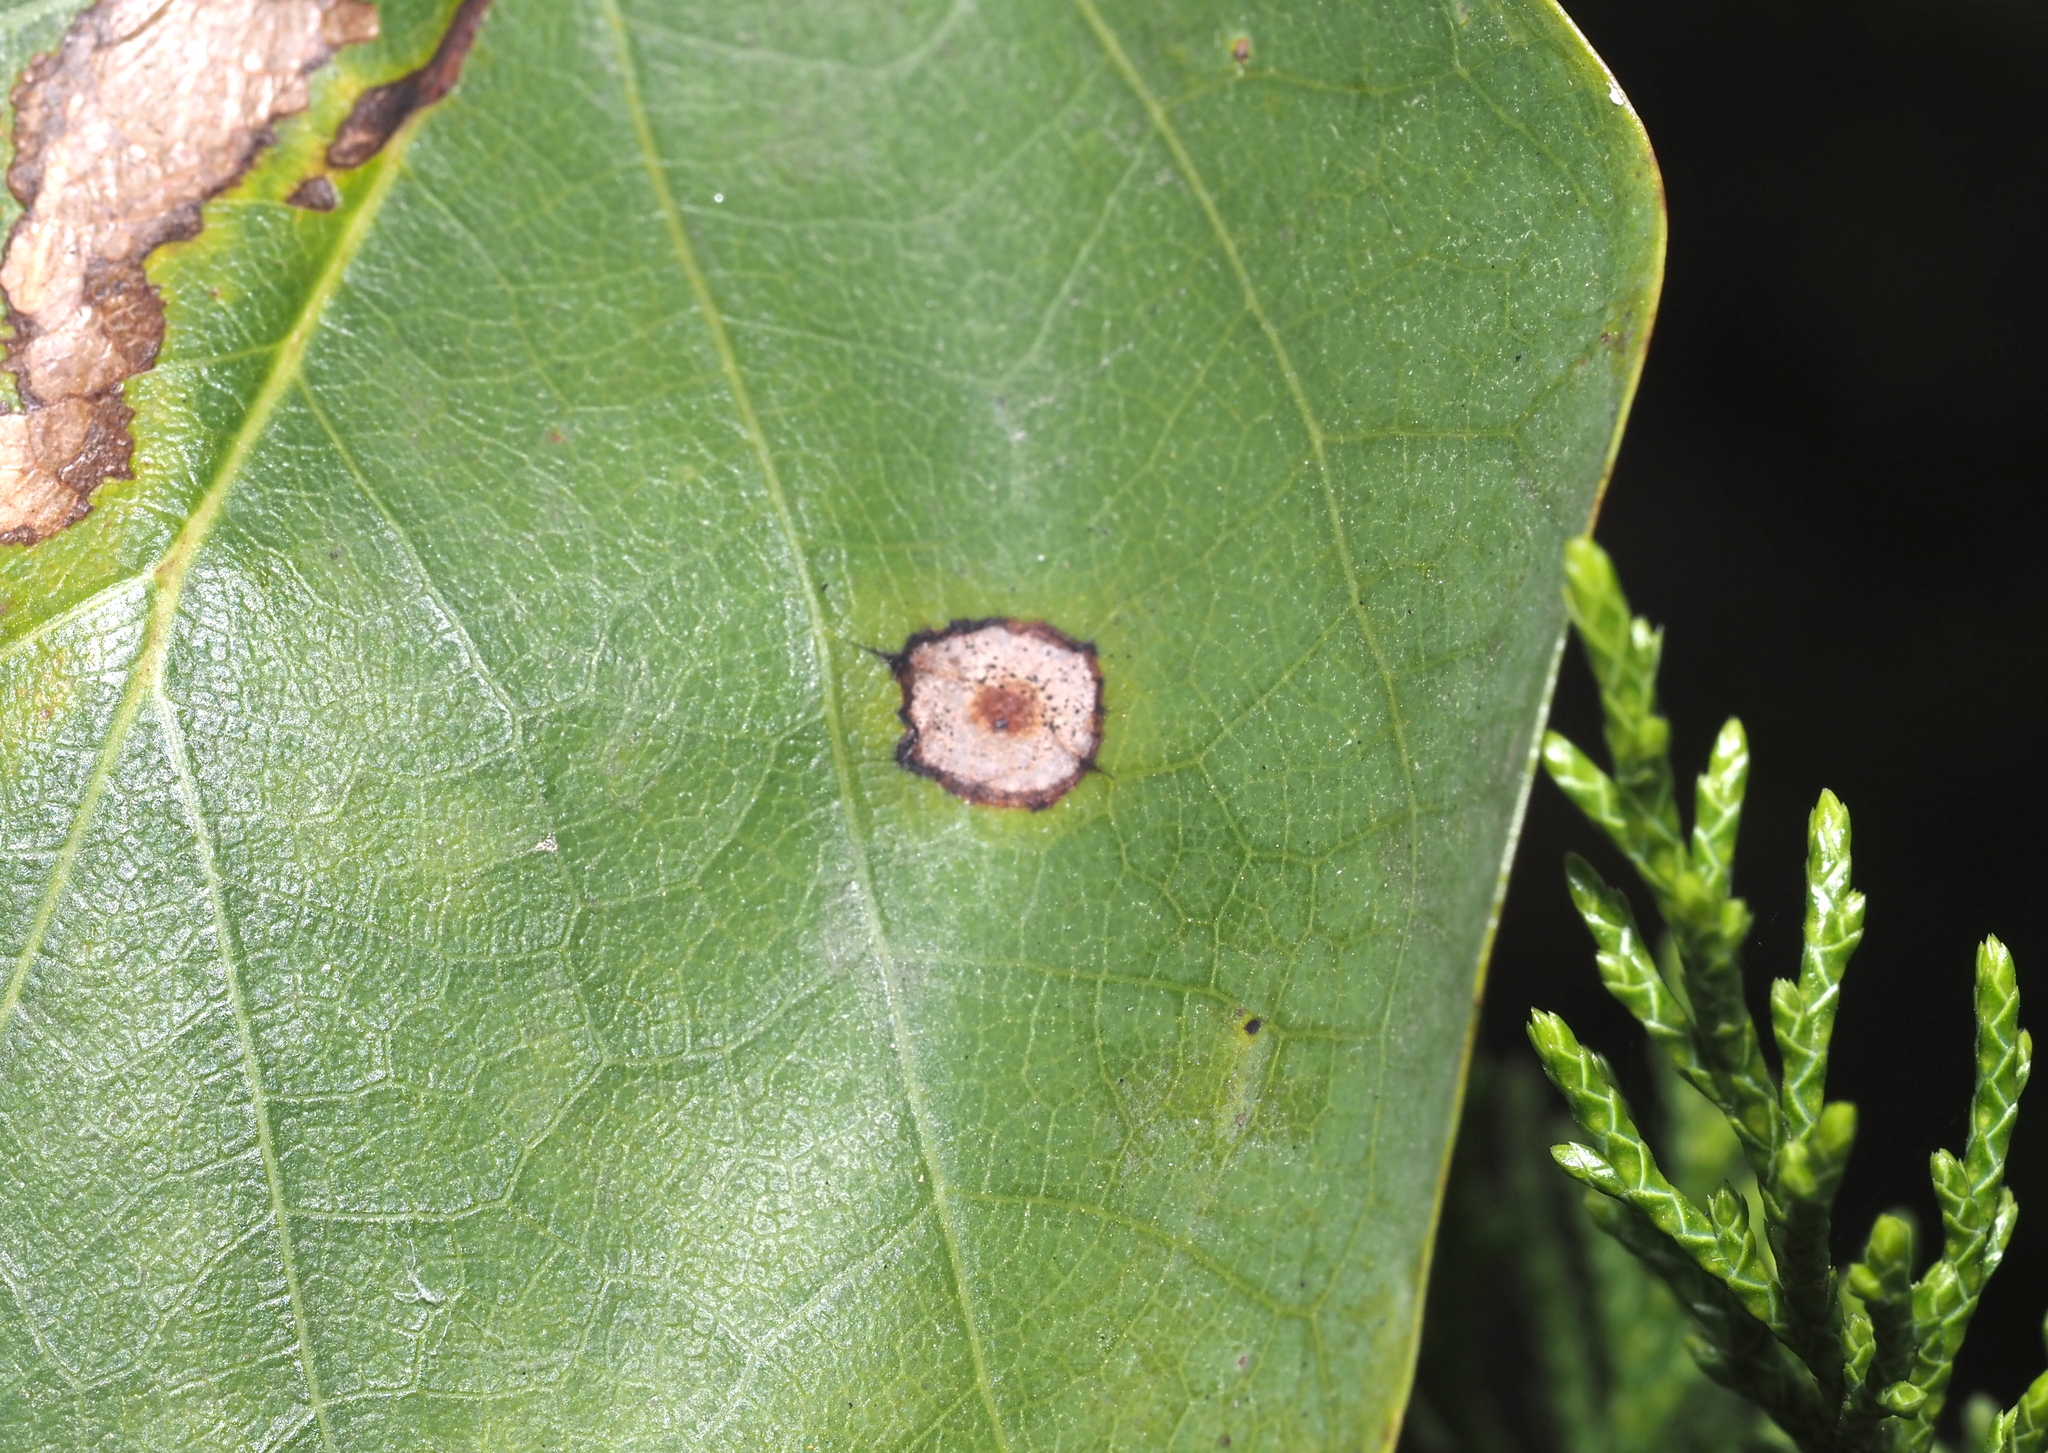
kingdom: Animalia
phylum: Arthropoda
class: Insecta
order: Diptera
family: Cecidomyiidae
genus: Resseliella
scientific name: Resseliella liriodendri
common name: Tulip tree leaf spot gall midge
